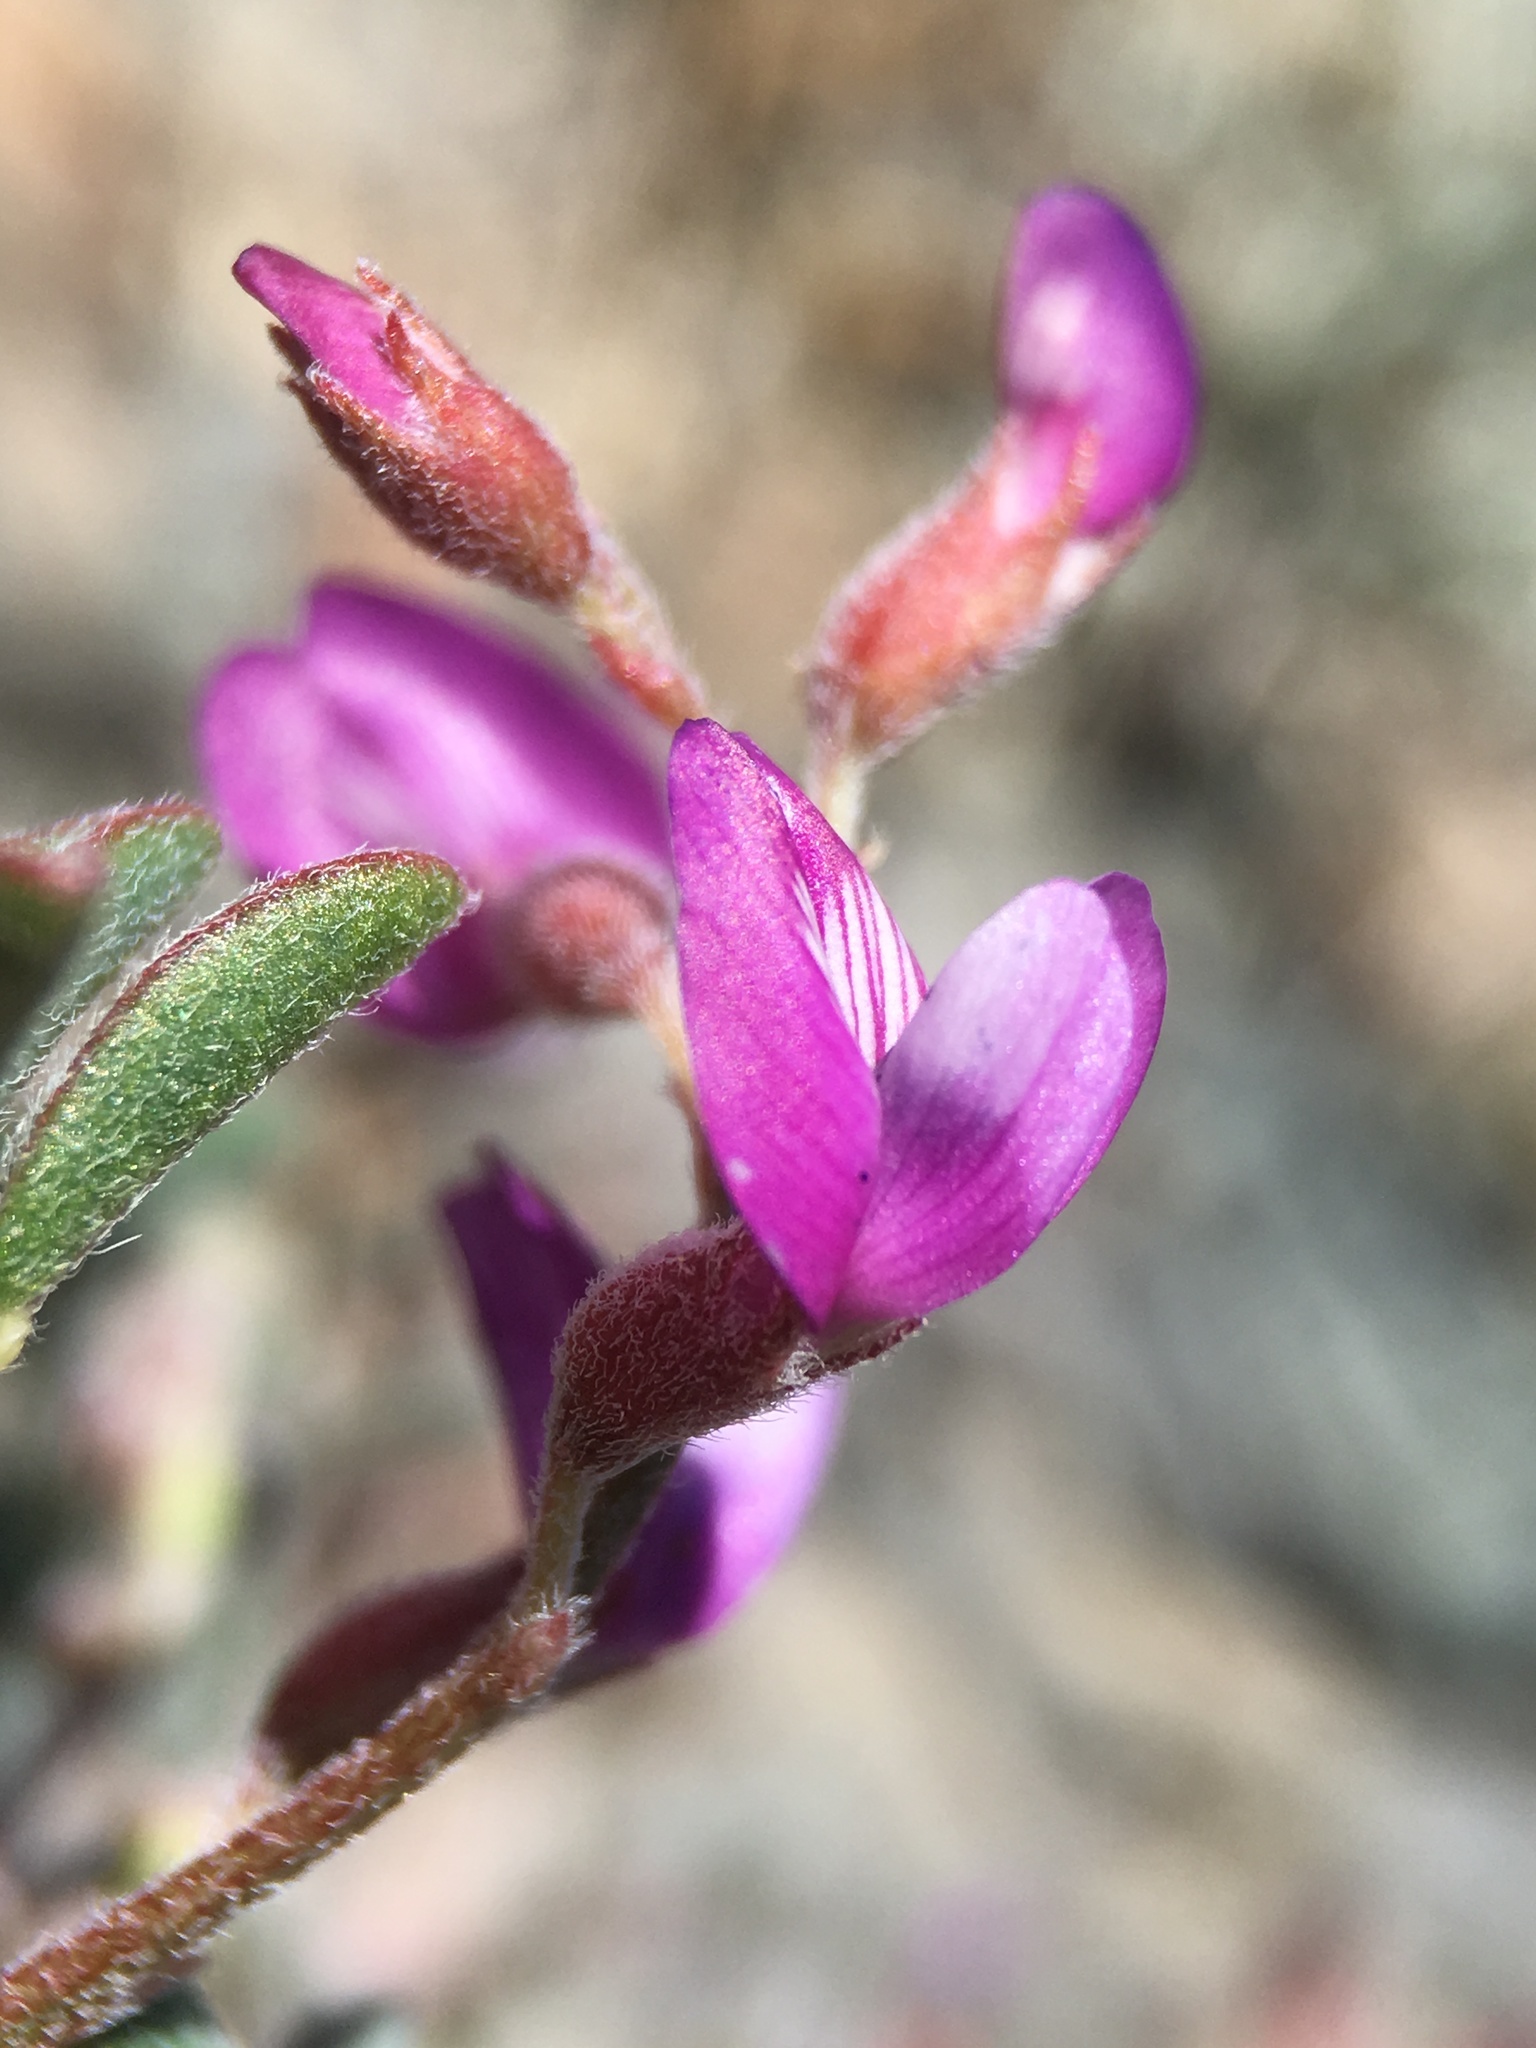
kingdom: Plantae
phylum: Tracheophyta
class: Magnoliopsida
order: Fabales
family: Fabaceae
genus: Astragalus
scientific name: Astragalus gilmanii
